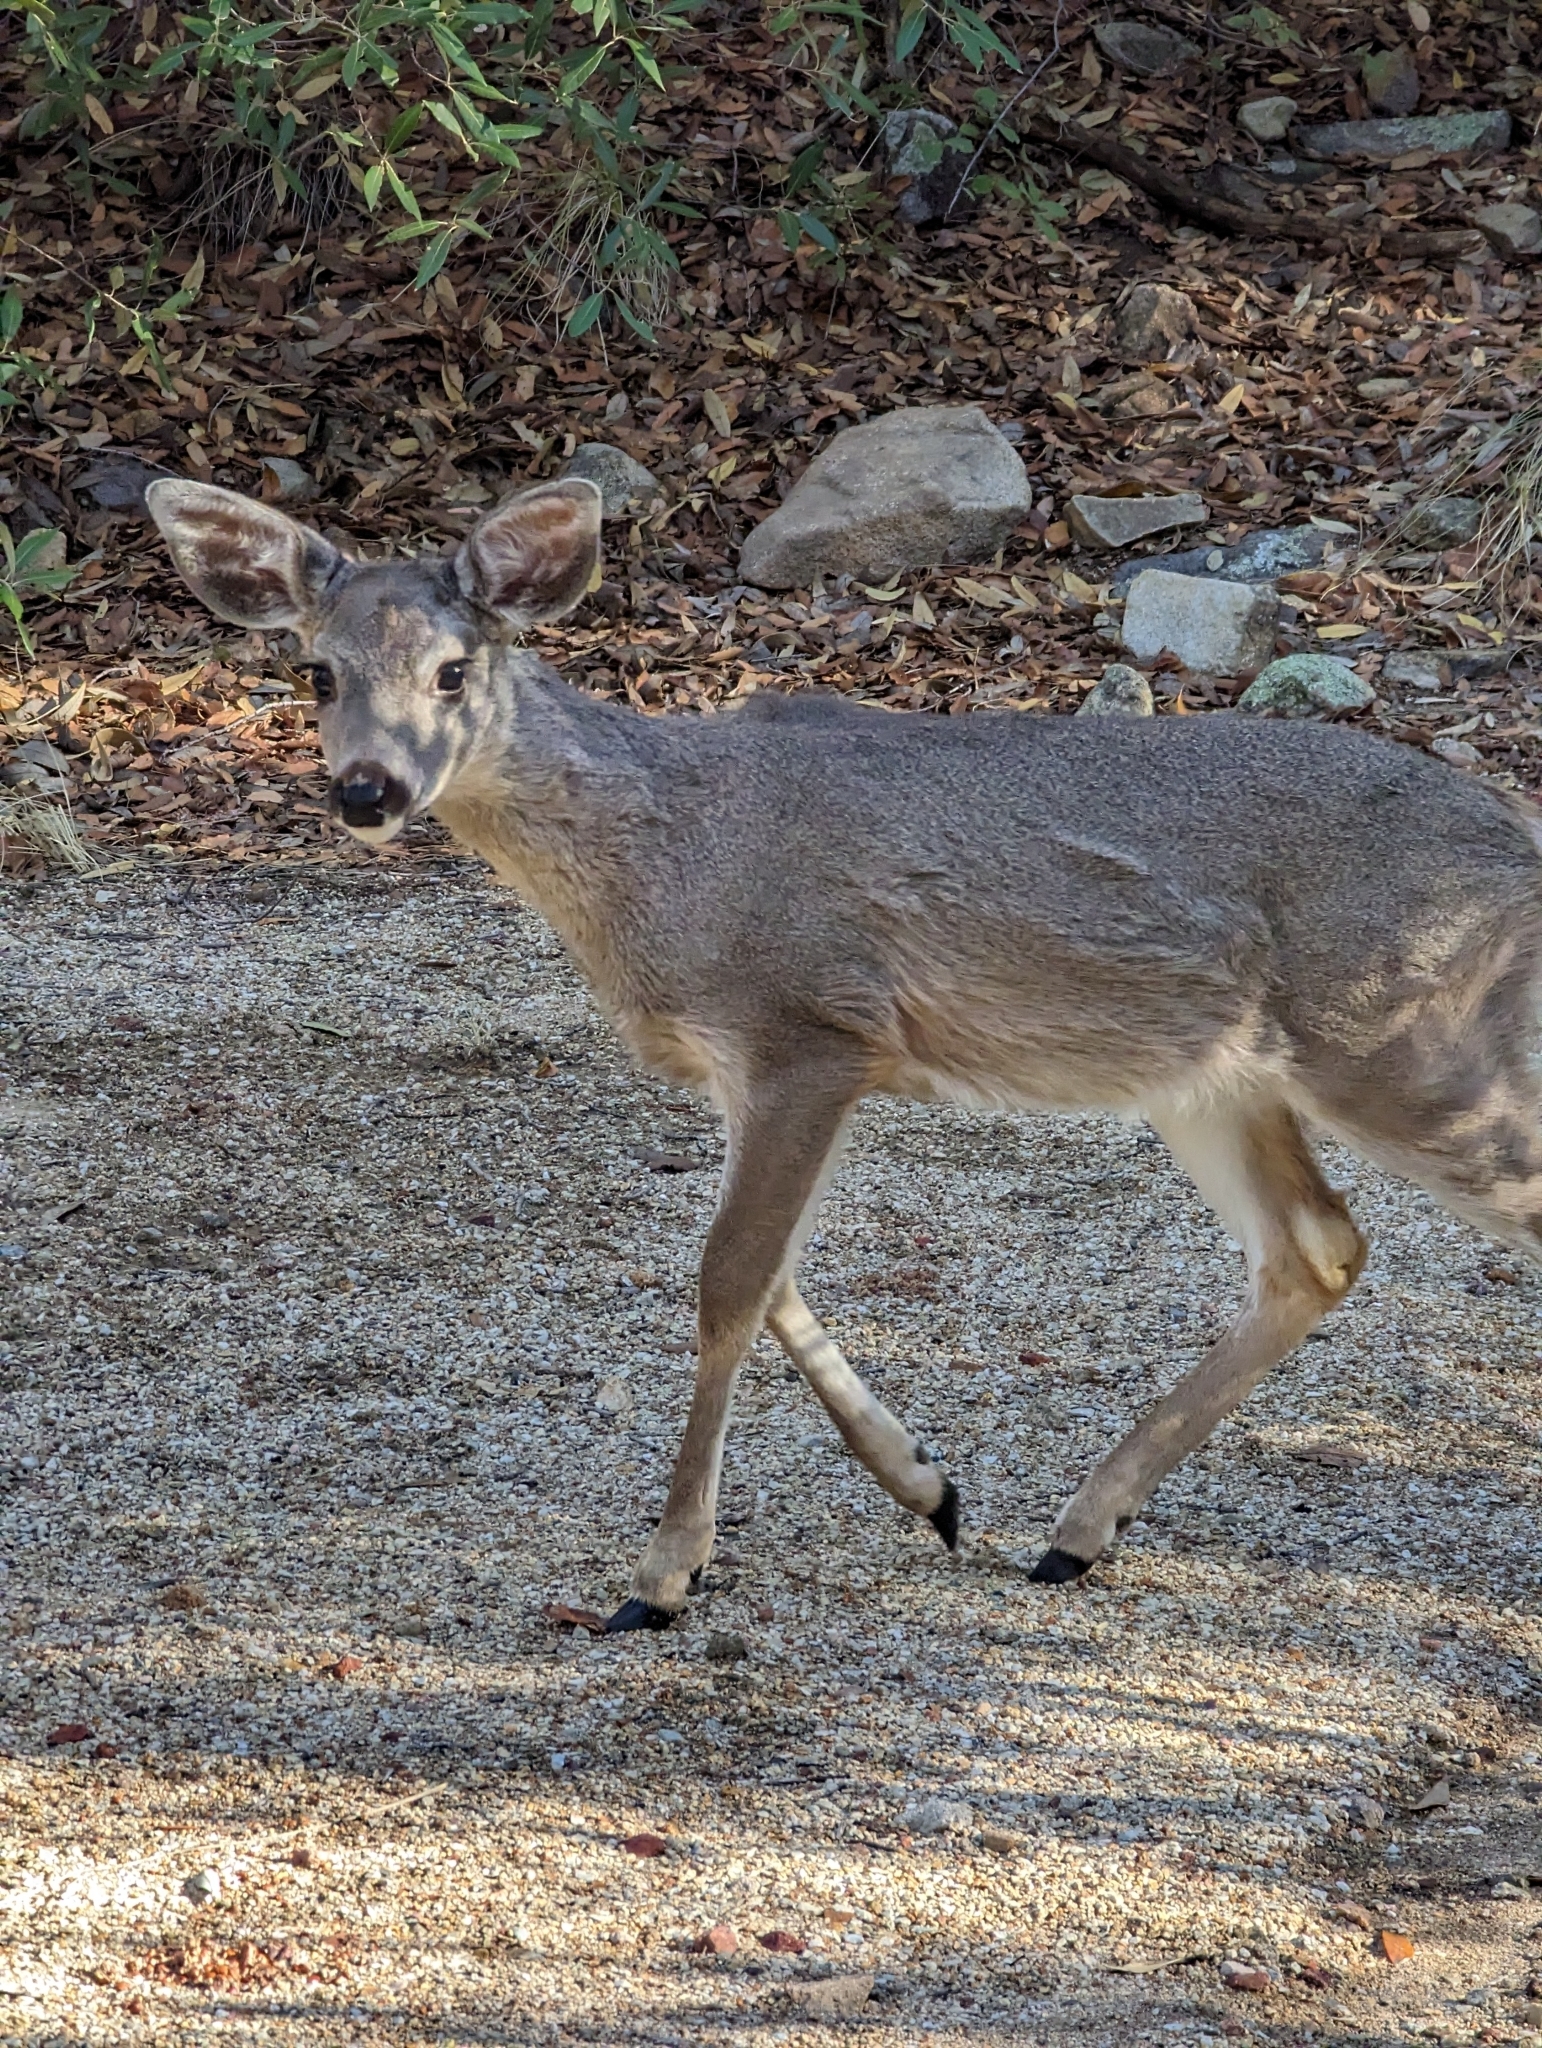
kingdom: Animalia
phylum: Chordata
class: Mammalia
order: Artiodactyla
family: Cervidae
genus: Odocoileus
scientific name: Odocoileus virginianus
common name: White-tailed deer
